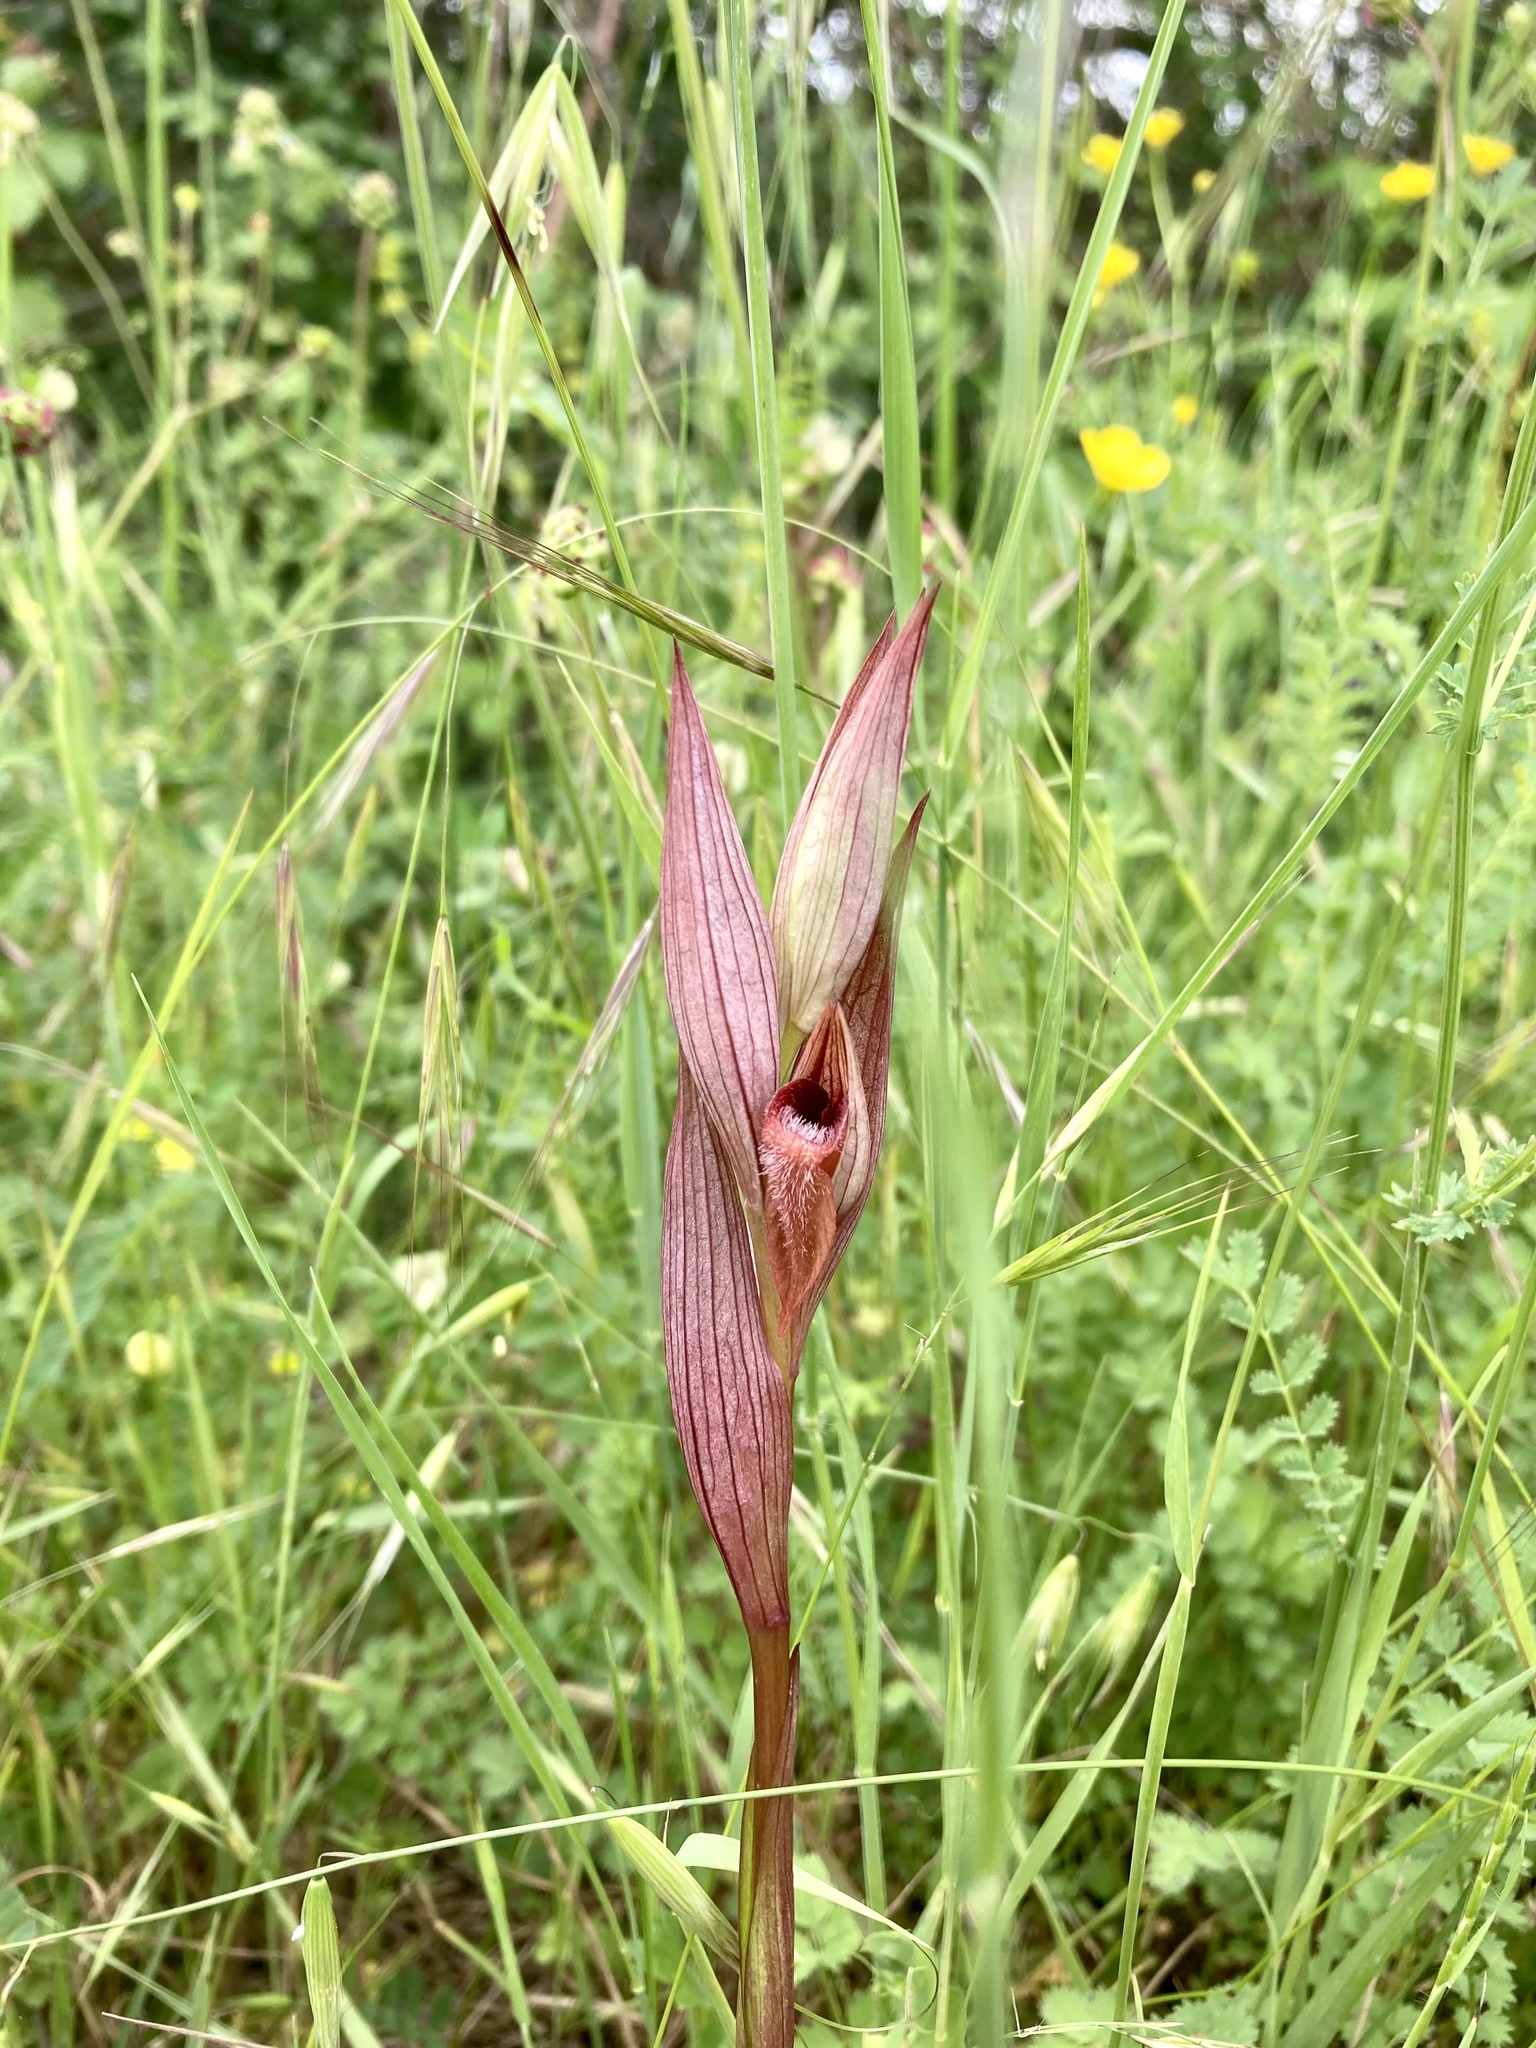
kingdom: Plantae
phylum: Tracheophyta
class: Liliopsida
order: Asparagales
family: Orchidaceae
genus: Serapias
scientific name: Serapias vomeracea
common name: Long-lipped tongue-orchid
